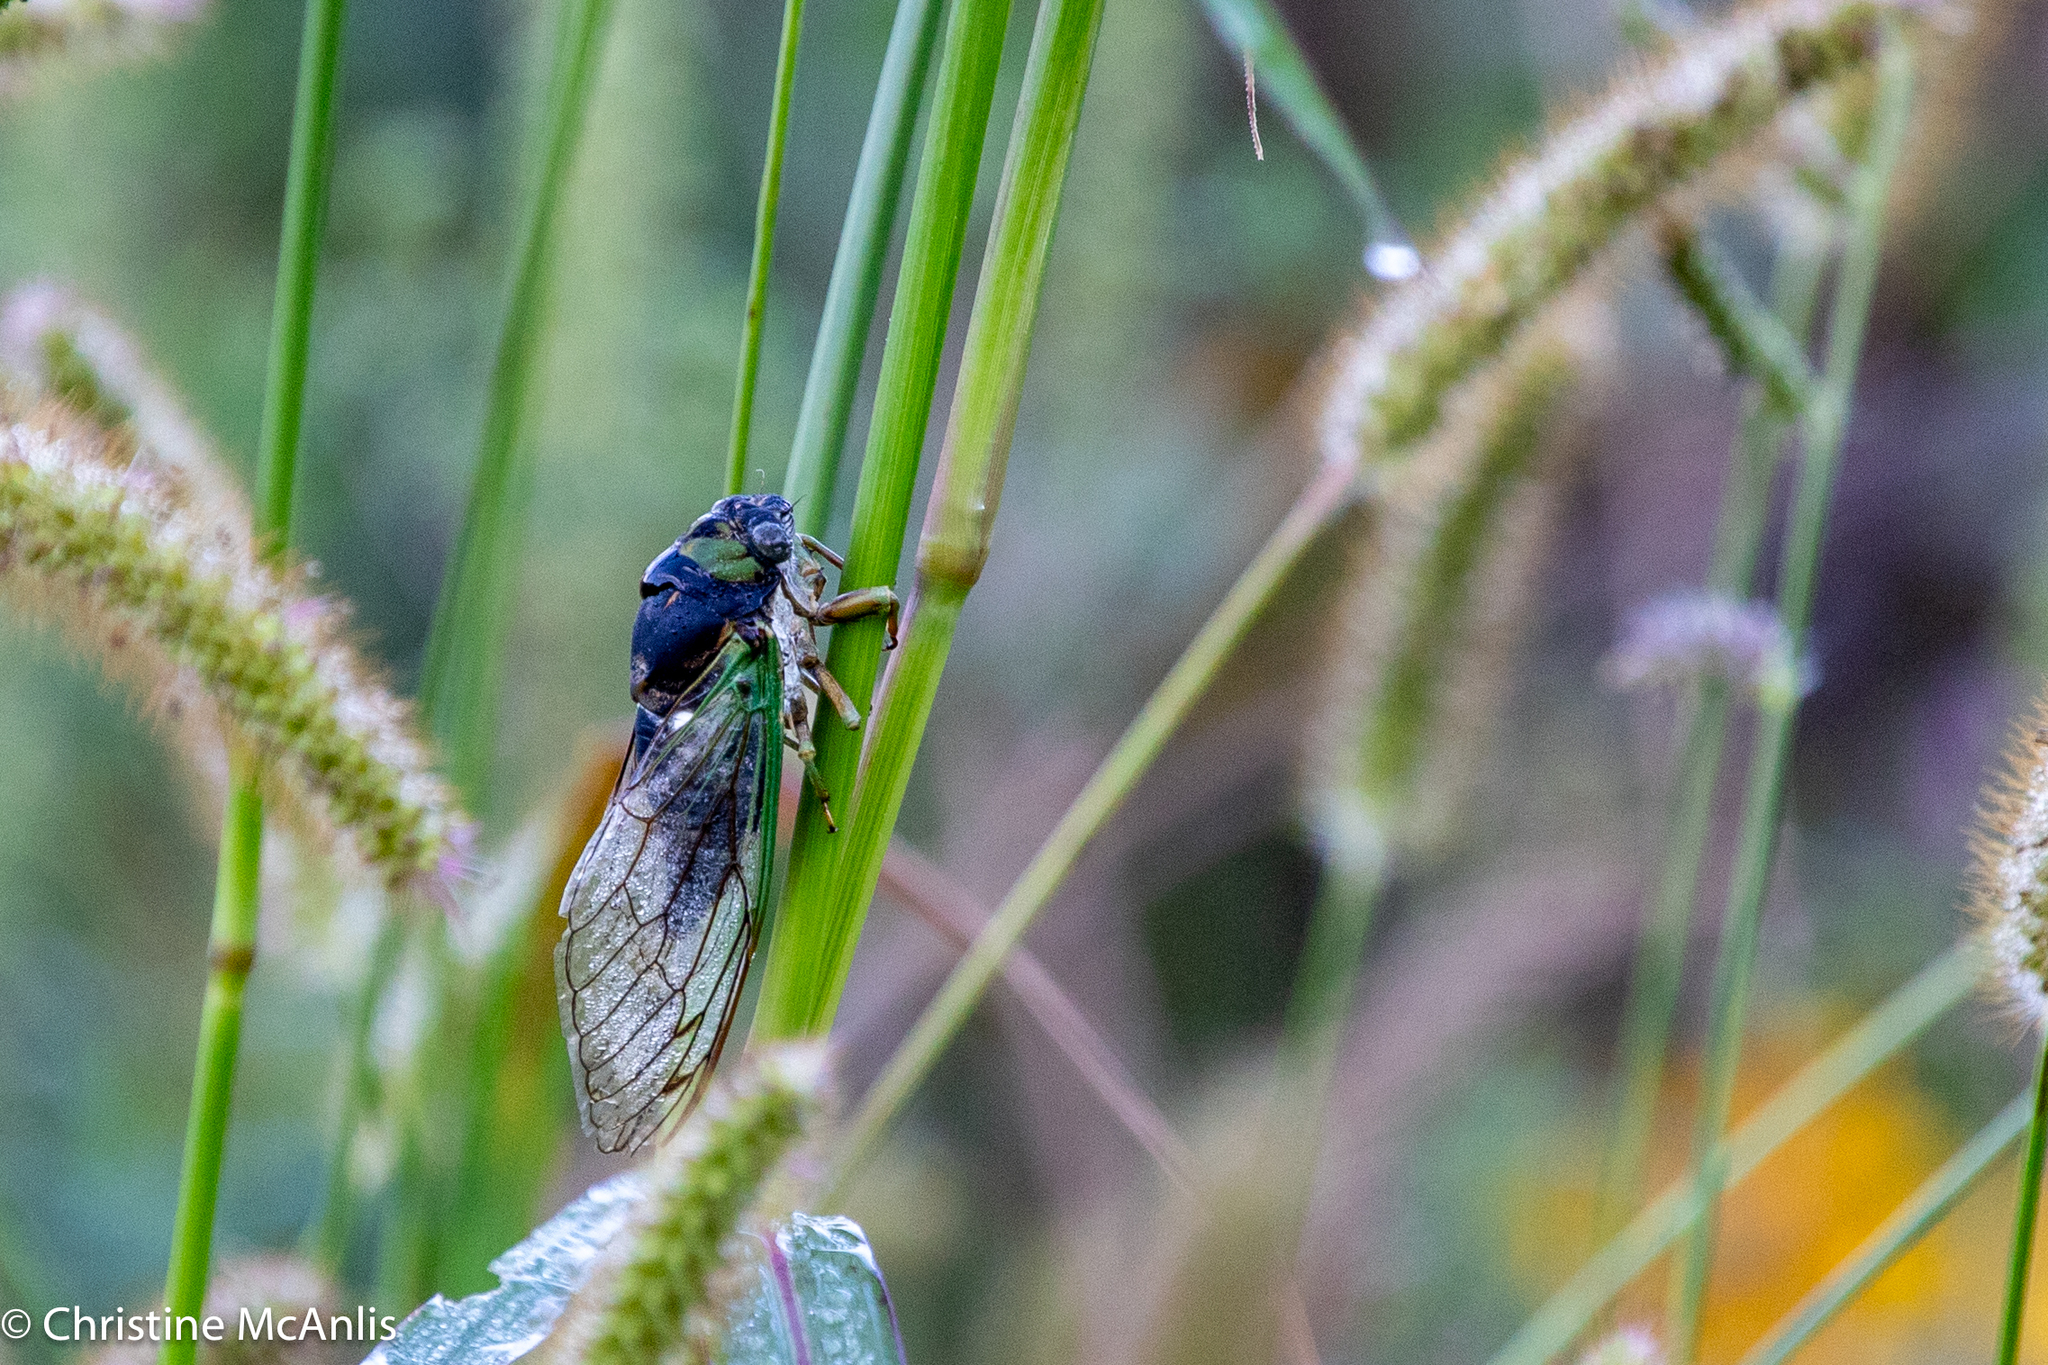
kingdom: Animalia
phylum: Arthropoda
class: Insecta
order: Hemiptera
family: Cicadidae
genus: Neotibicen
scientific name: Neotibicen tibicen
